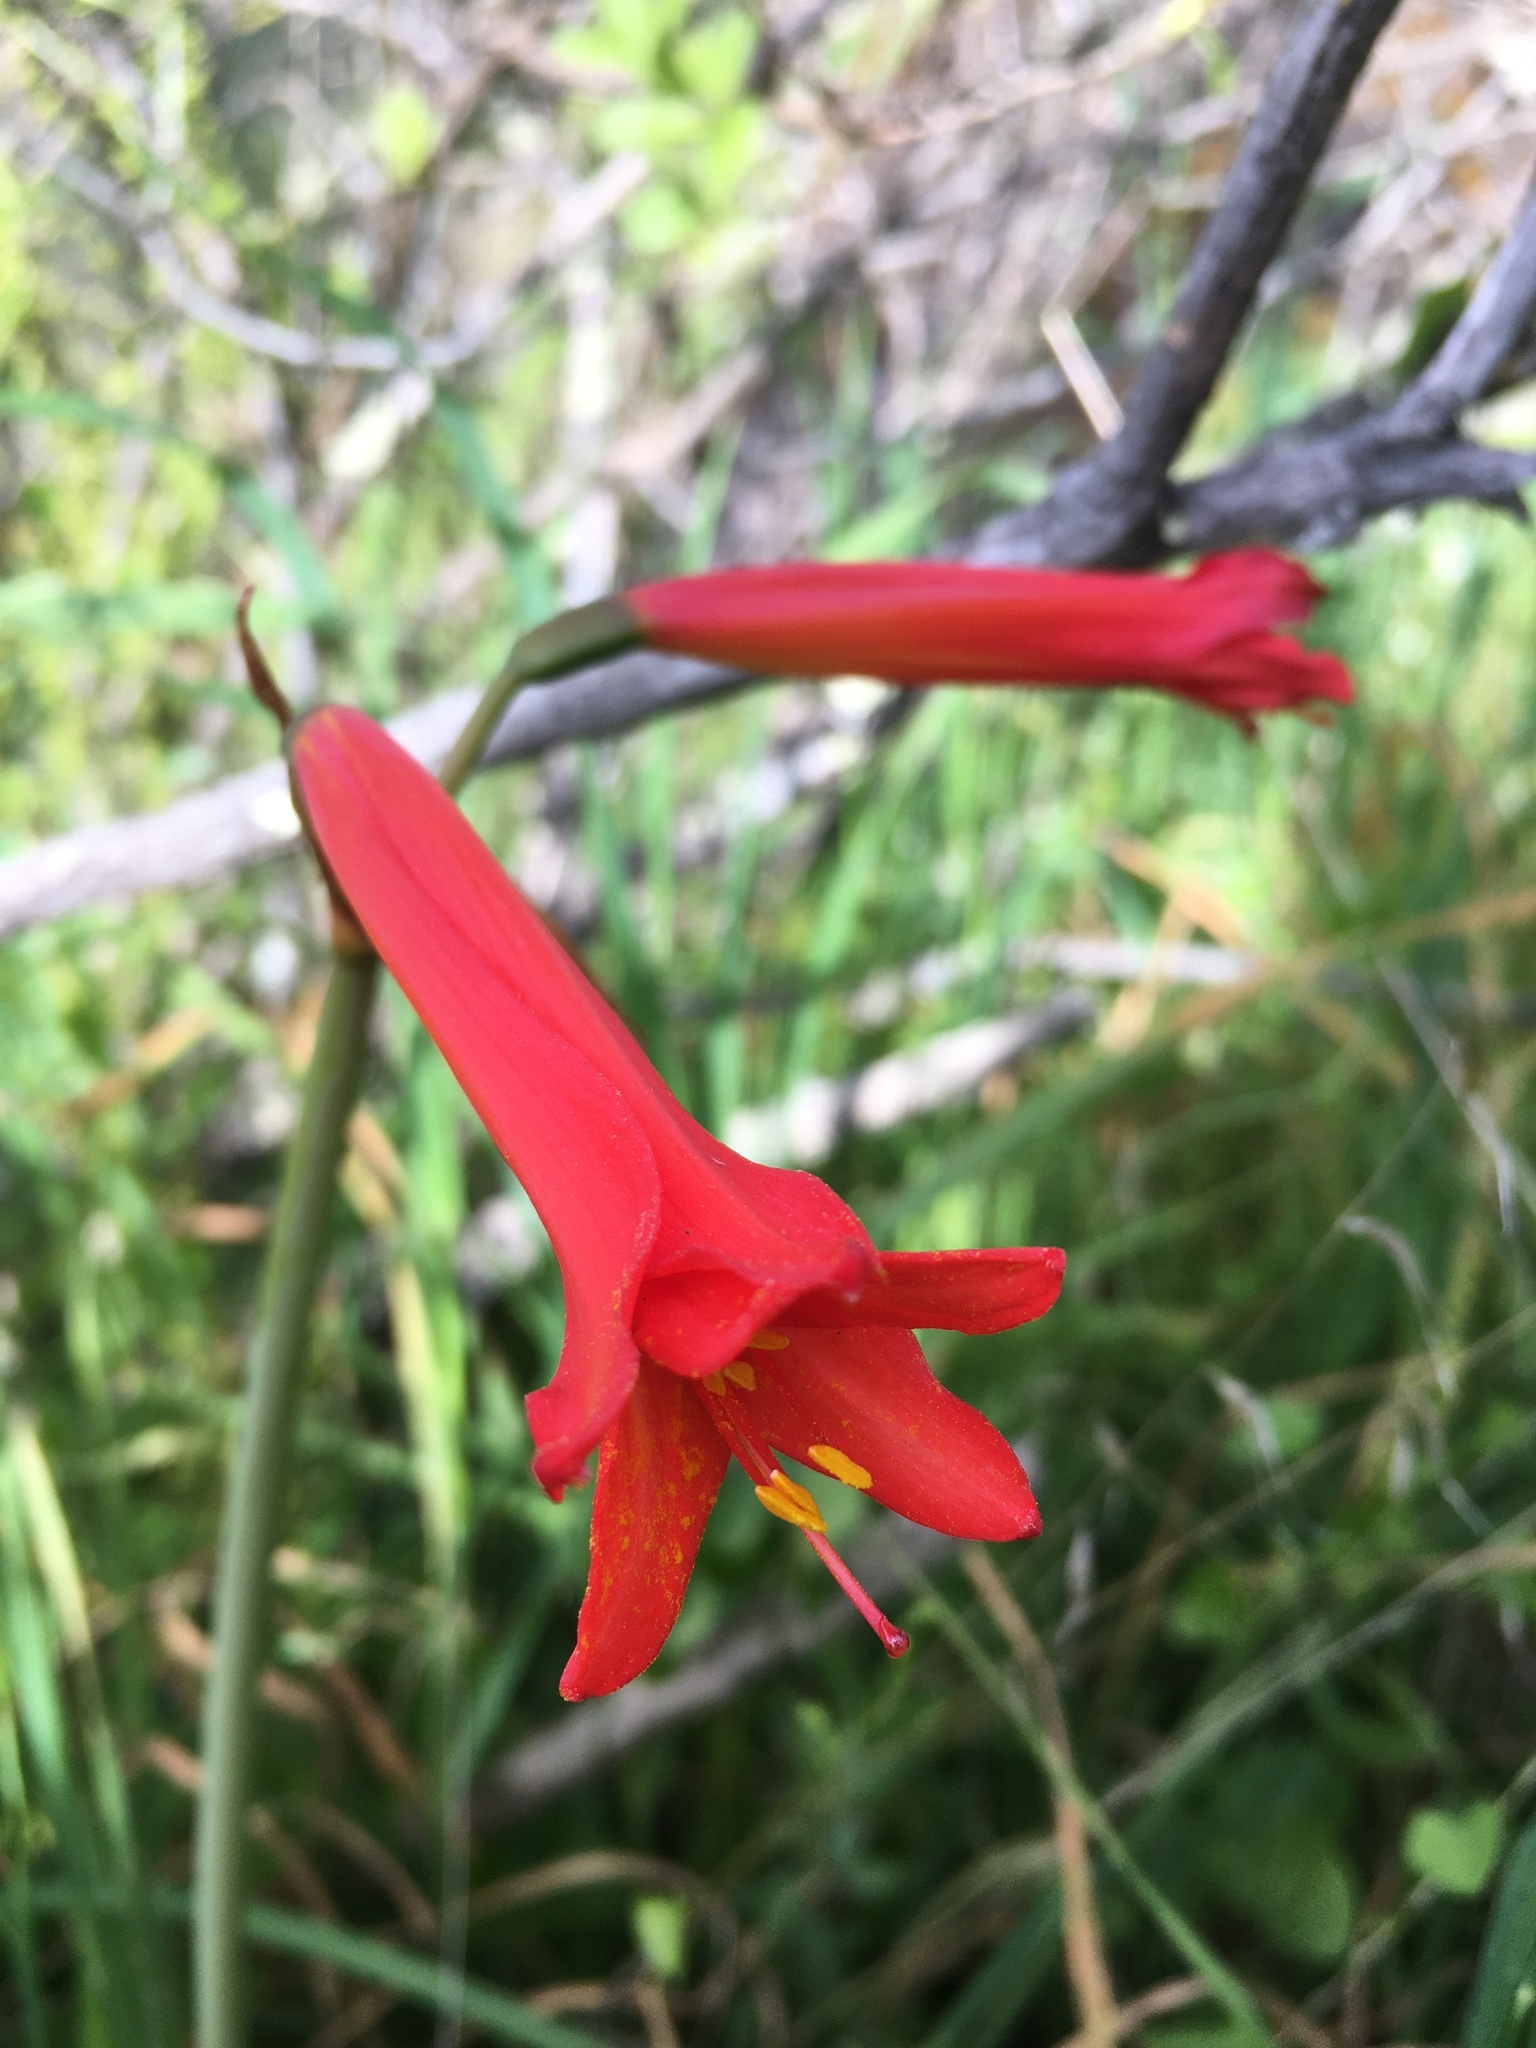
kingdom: Plantae
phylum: Tracheophyta
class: Liliopsida
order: Asparagales
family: Amaryllidaceae
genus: Phycella
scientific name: Phycella cyrtanthoides
